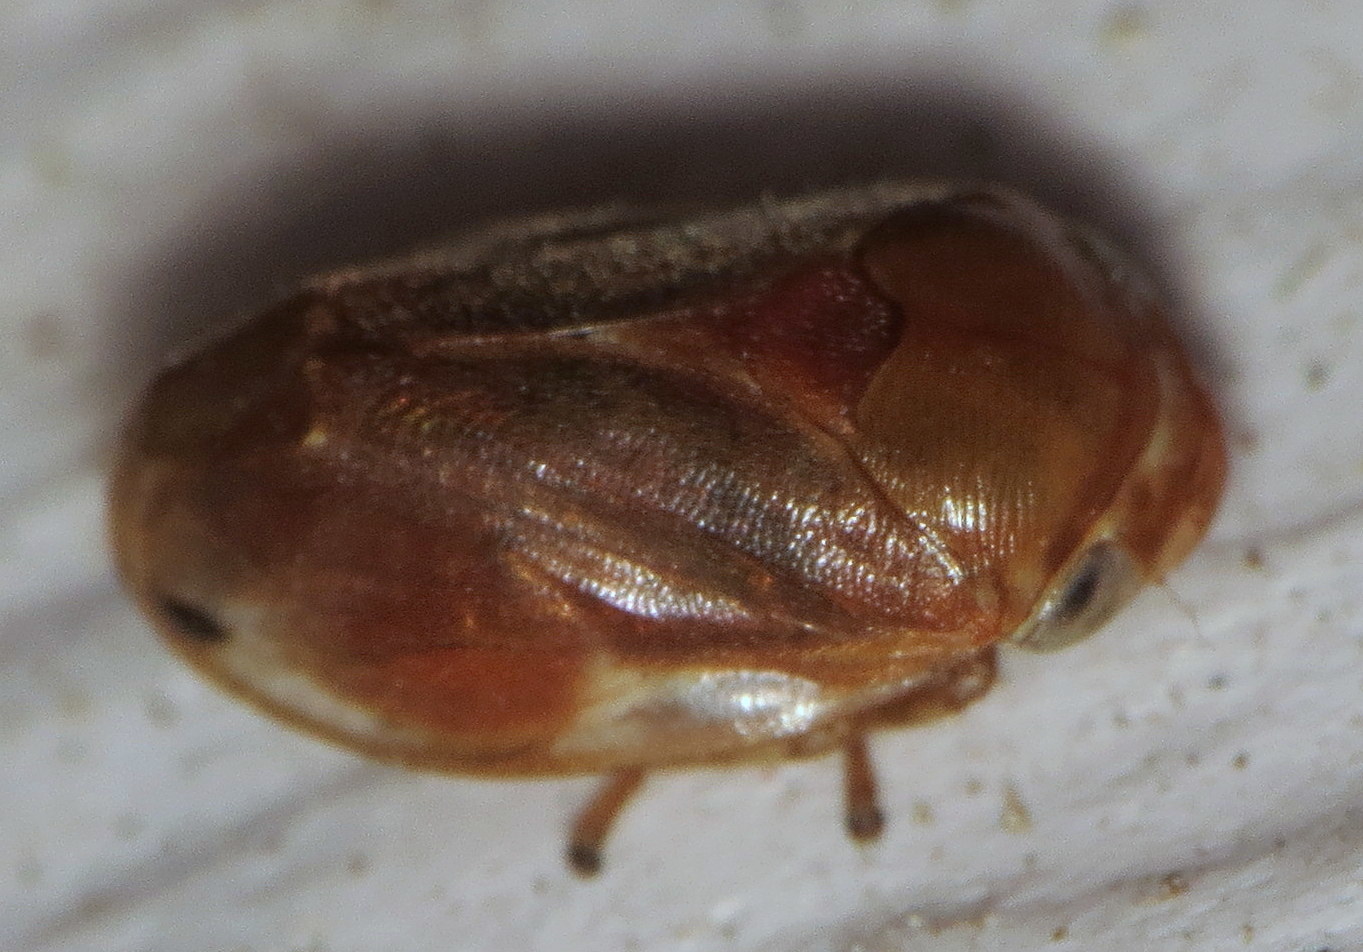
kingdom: Animalia
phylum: Arthropoda
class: Insecta
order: Hemiptera
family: Clastopteridae
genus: Clastoptera
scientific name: Clastoptera testacea
